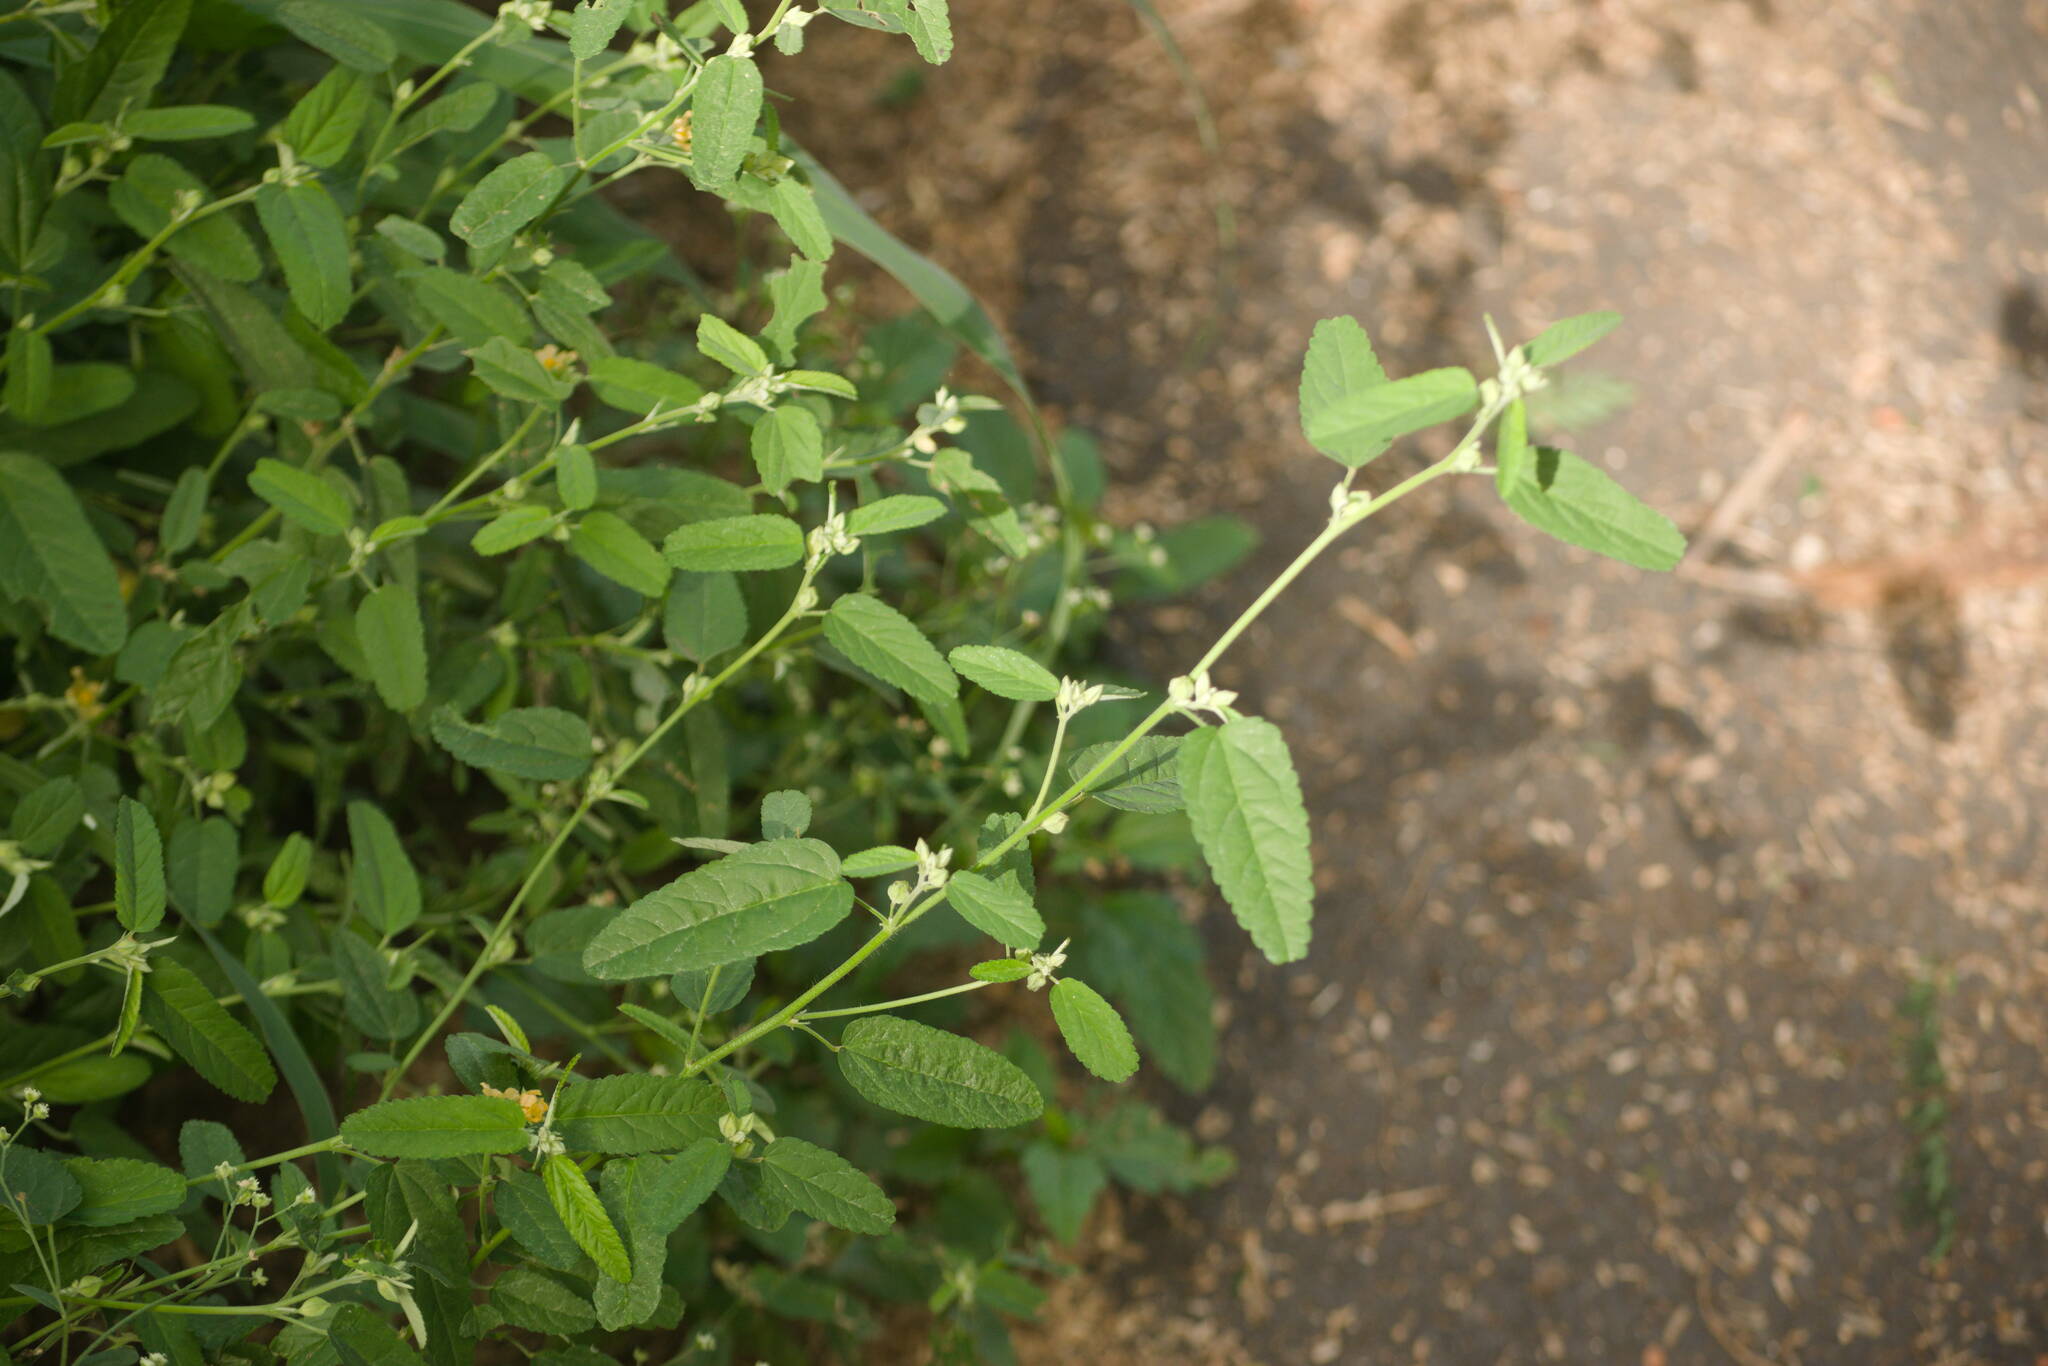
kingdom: Plantae
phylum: Tracheophyta
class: Magnoliopsida
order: Malvales
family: Malvaceae
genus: Sida
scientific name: Sida spinosa
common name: Prickly fanpetals
